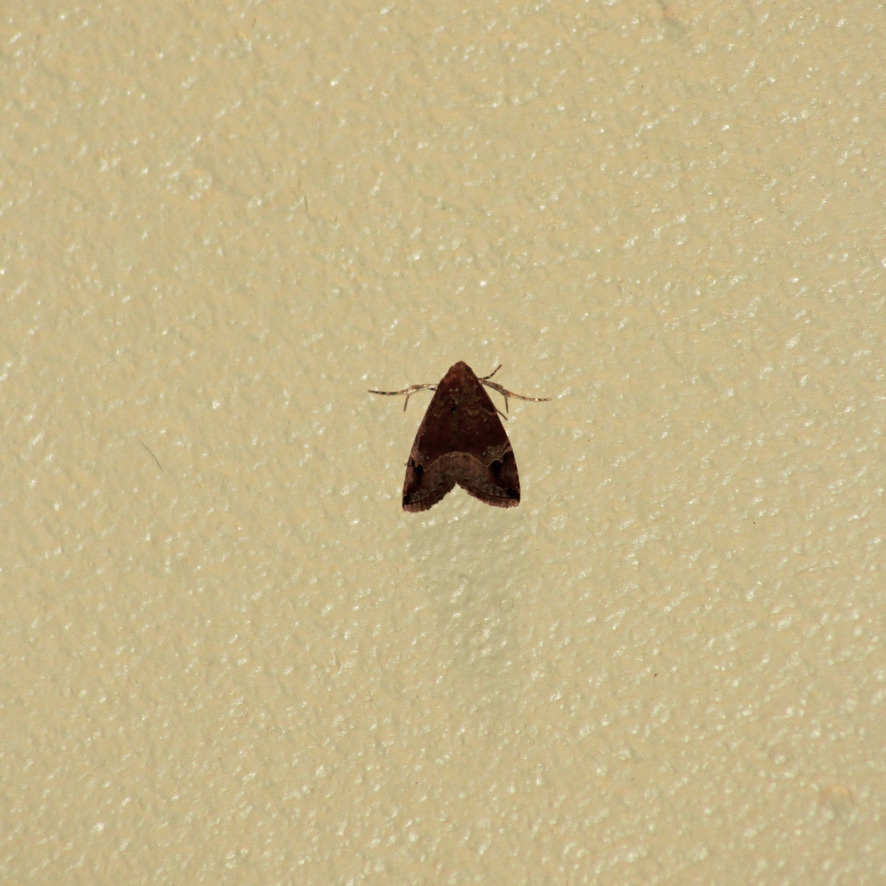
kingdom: Animalia
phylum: Arthropoda
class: Insecta
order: Lepidoptera
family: Noctuidae
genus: Ozarba
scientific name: Ozarba melanodonta
